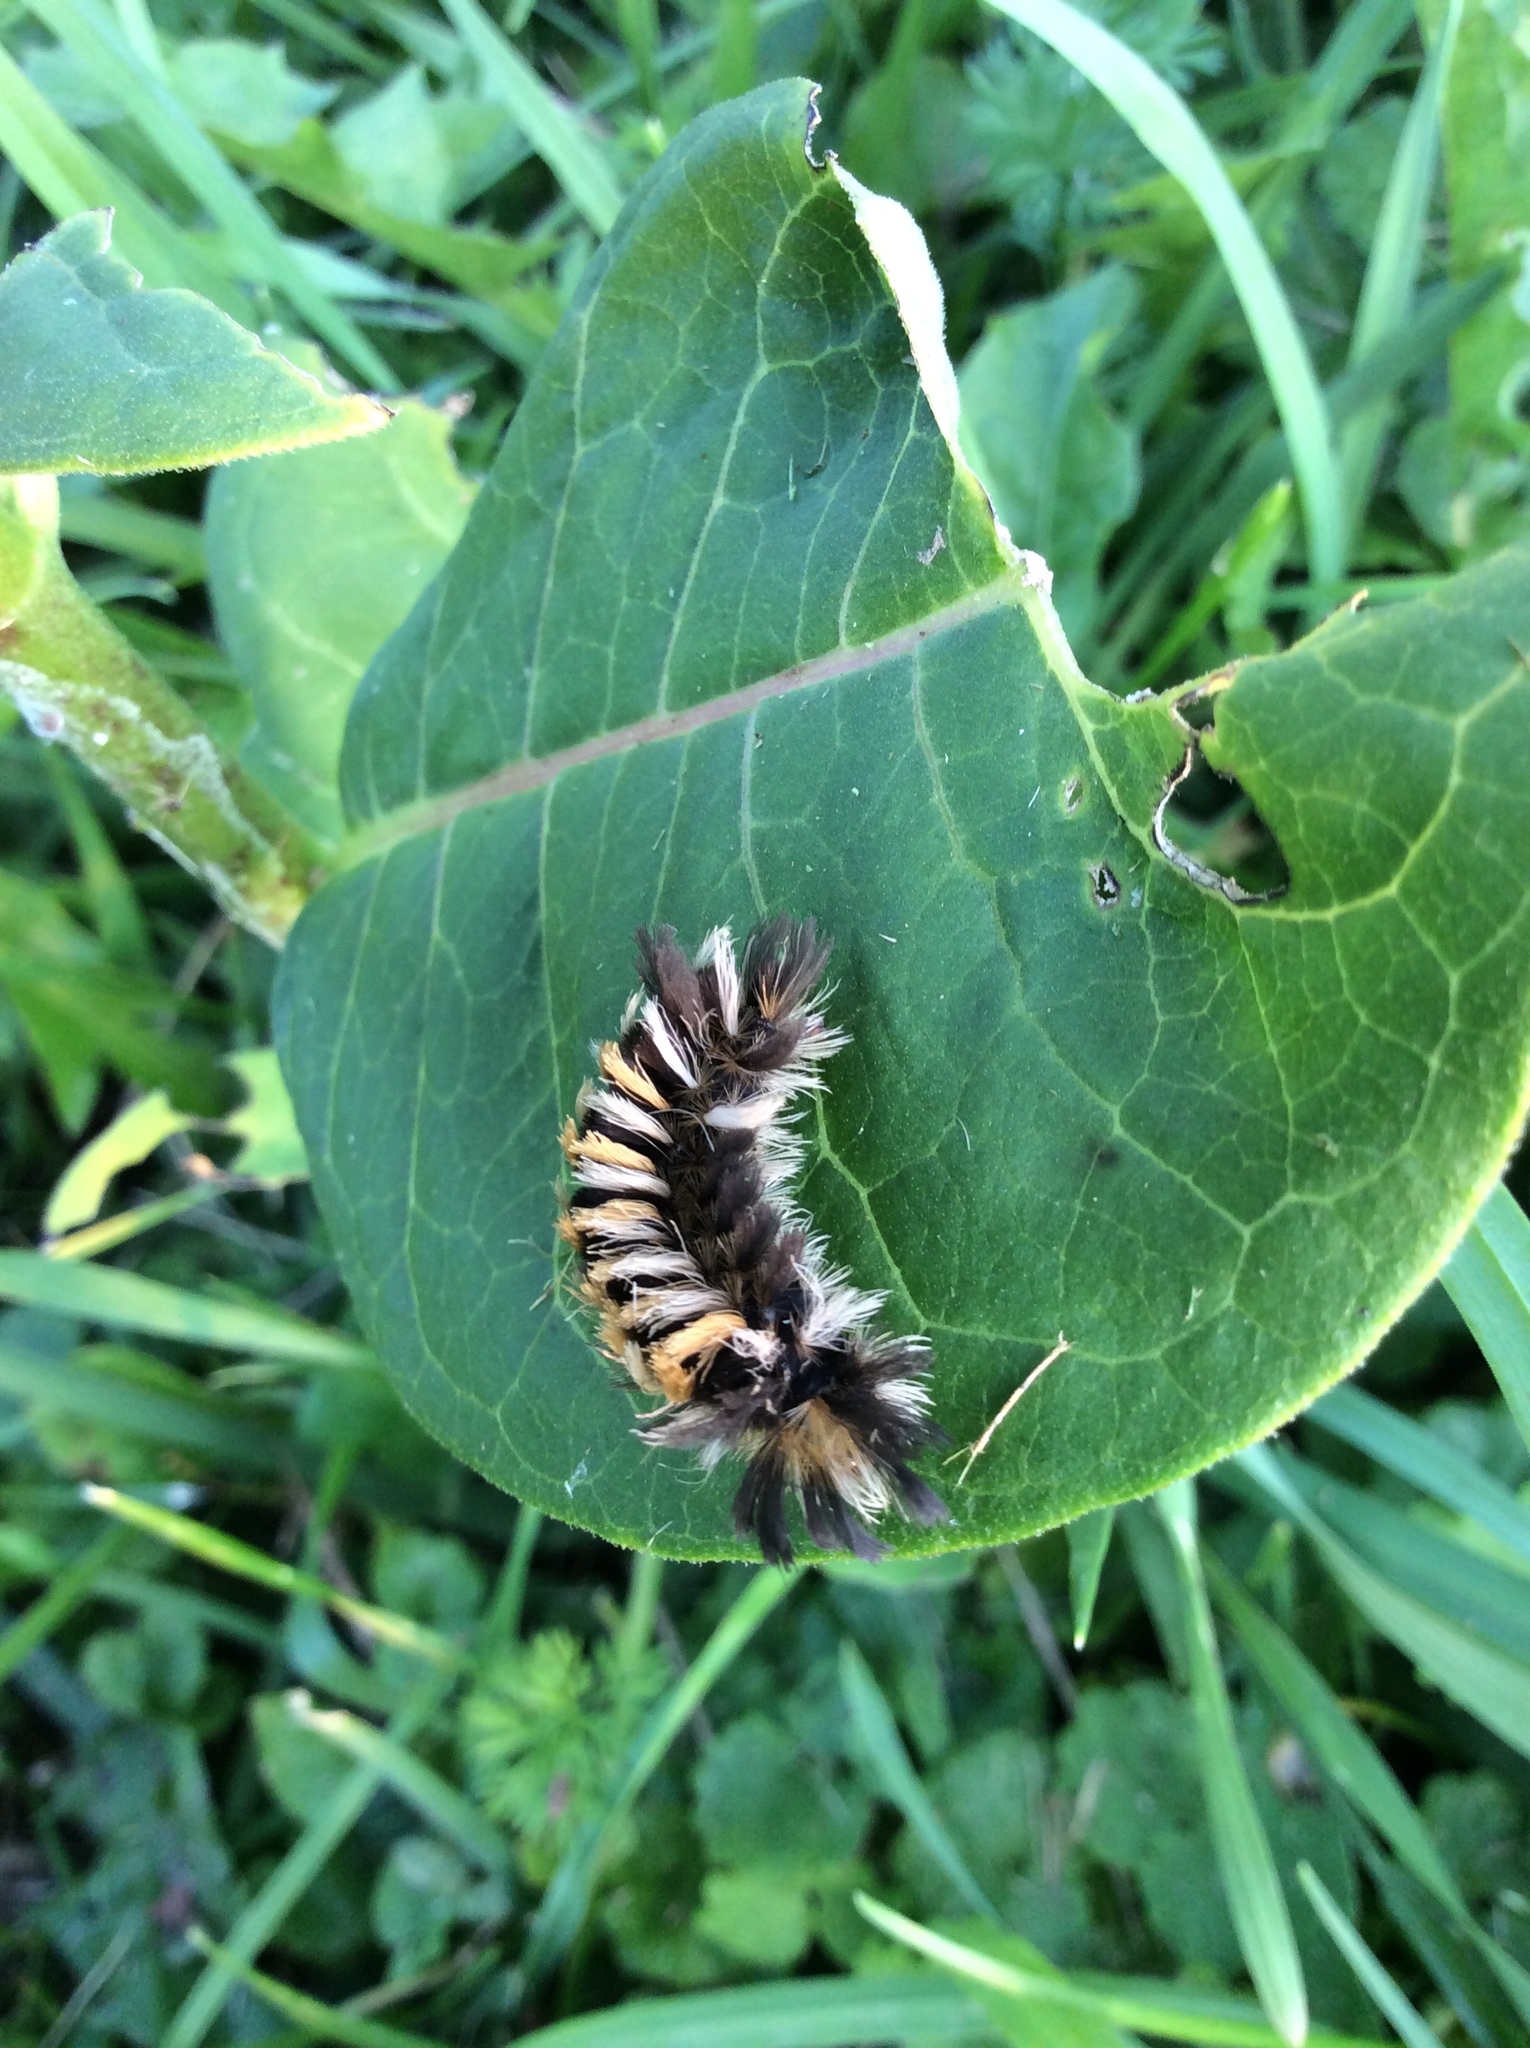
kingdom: Animalia
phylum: Arthropoda
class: Insecta
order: Lepidoptera
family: Erebidae
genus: Euchaetes
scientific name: Euchaetes egle
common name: Milkweed tussock moth
